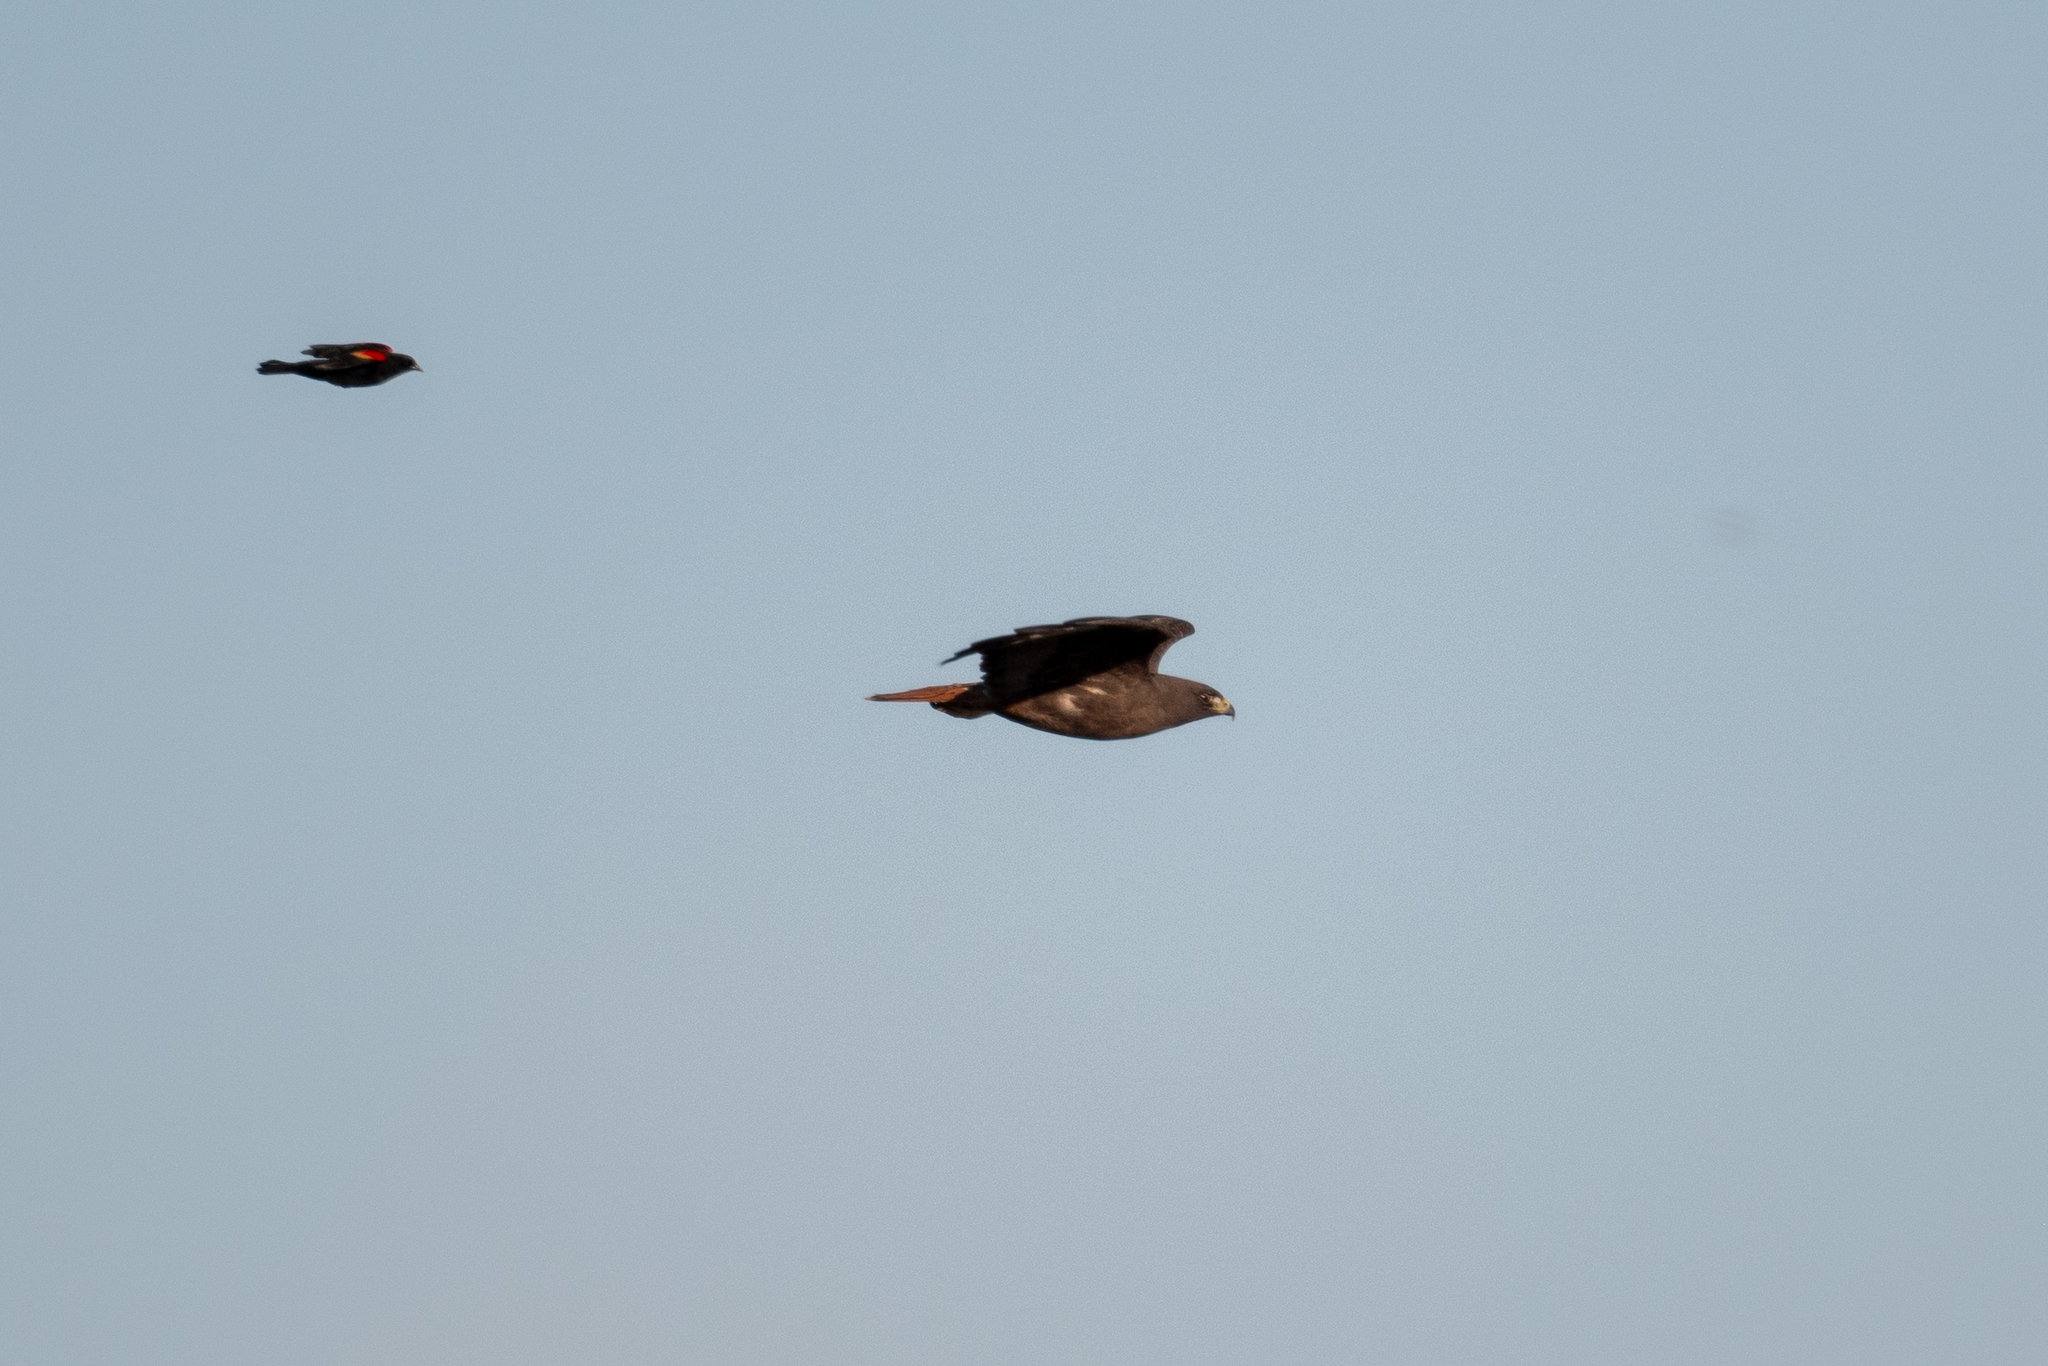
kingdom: Animalia
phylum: Chordata
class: Aves
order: Passeriformes
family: Icteridae
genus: Agelaius
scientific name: Agelaius phoeniceus
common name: Red-winged blackbird
